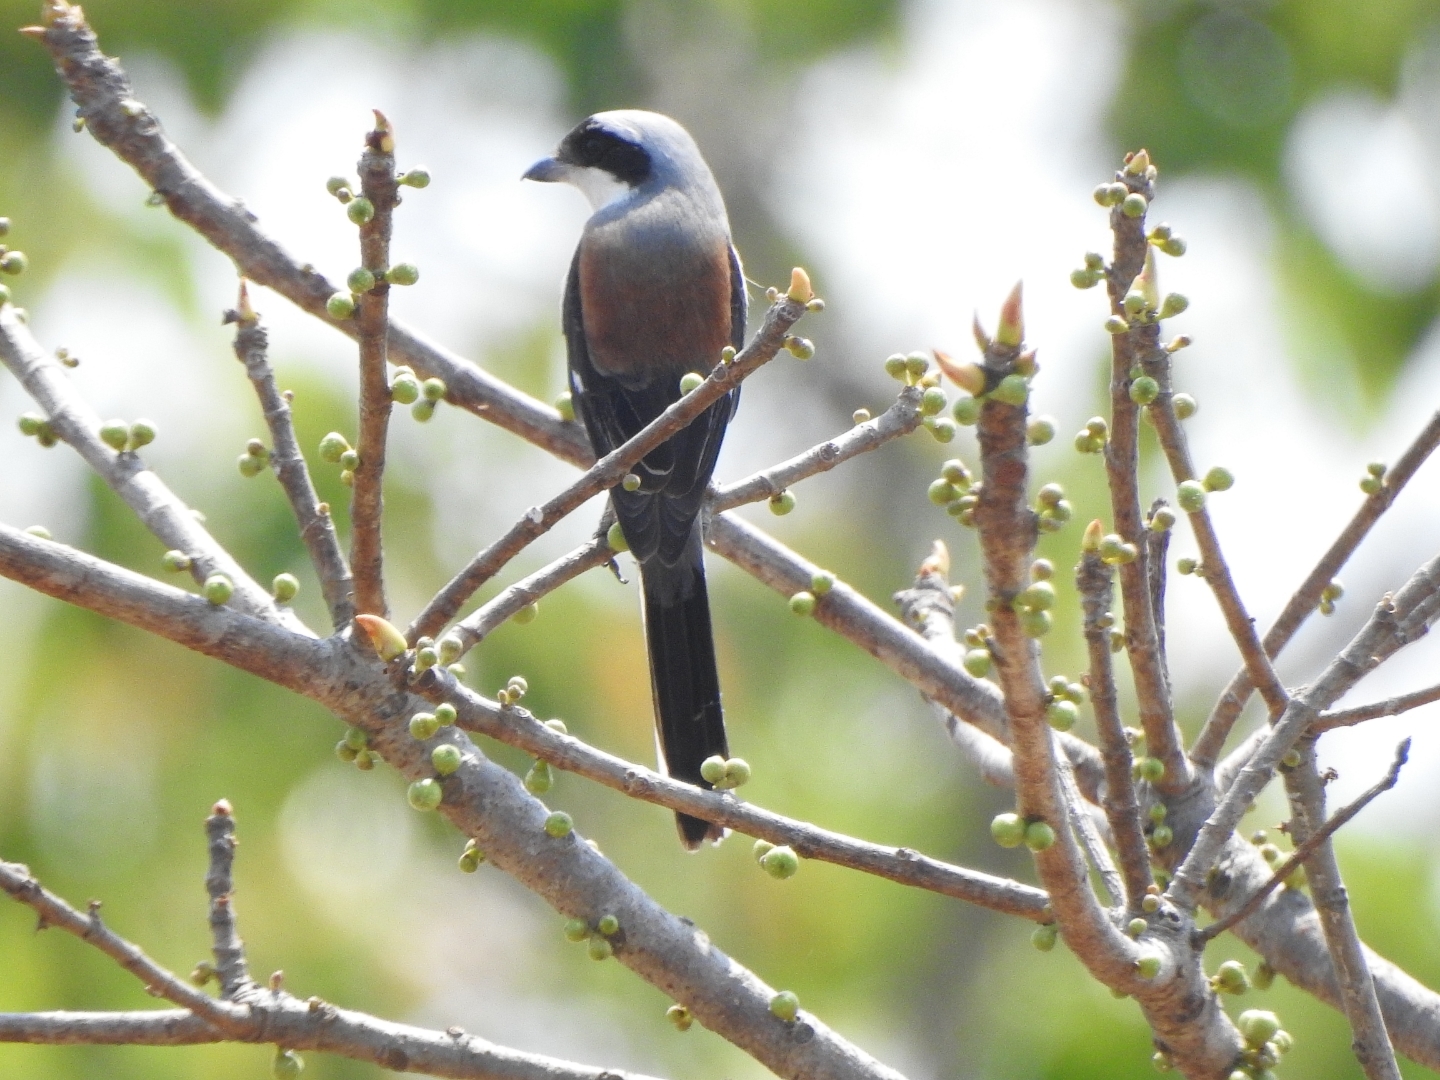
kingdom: Animalia
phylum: Chordata
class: Aves
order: Passeriformes
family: Laniidae
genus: Lanius
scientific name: Lanius vittatus
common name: Bay-backed shrike
